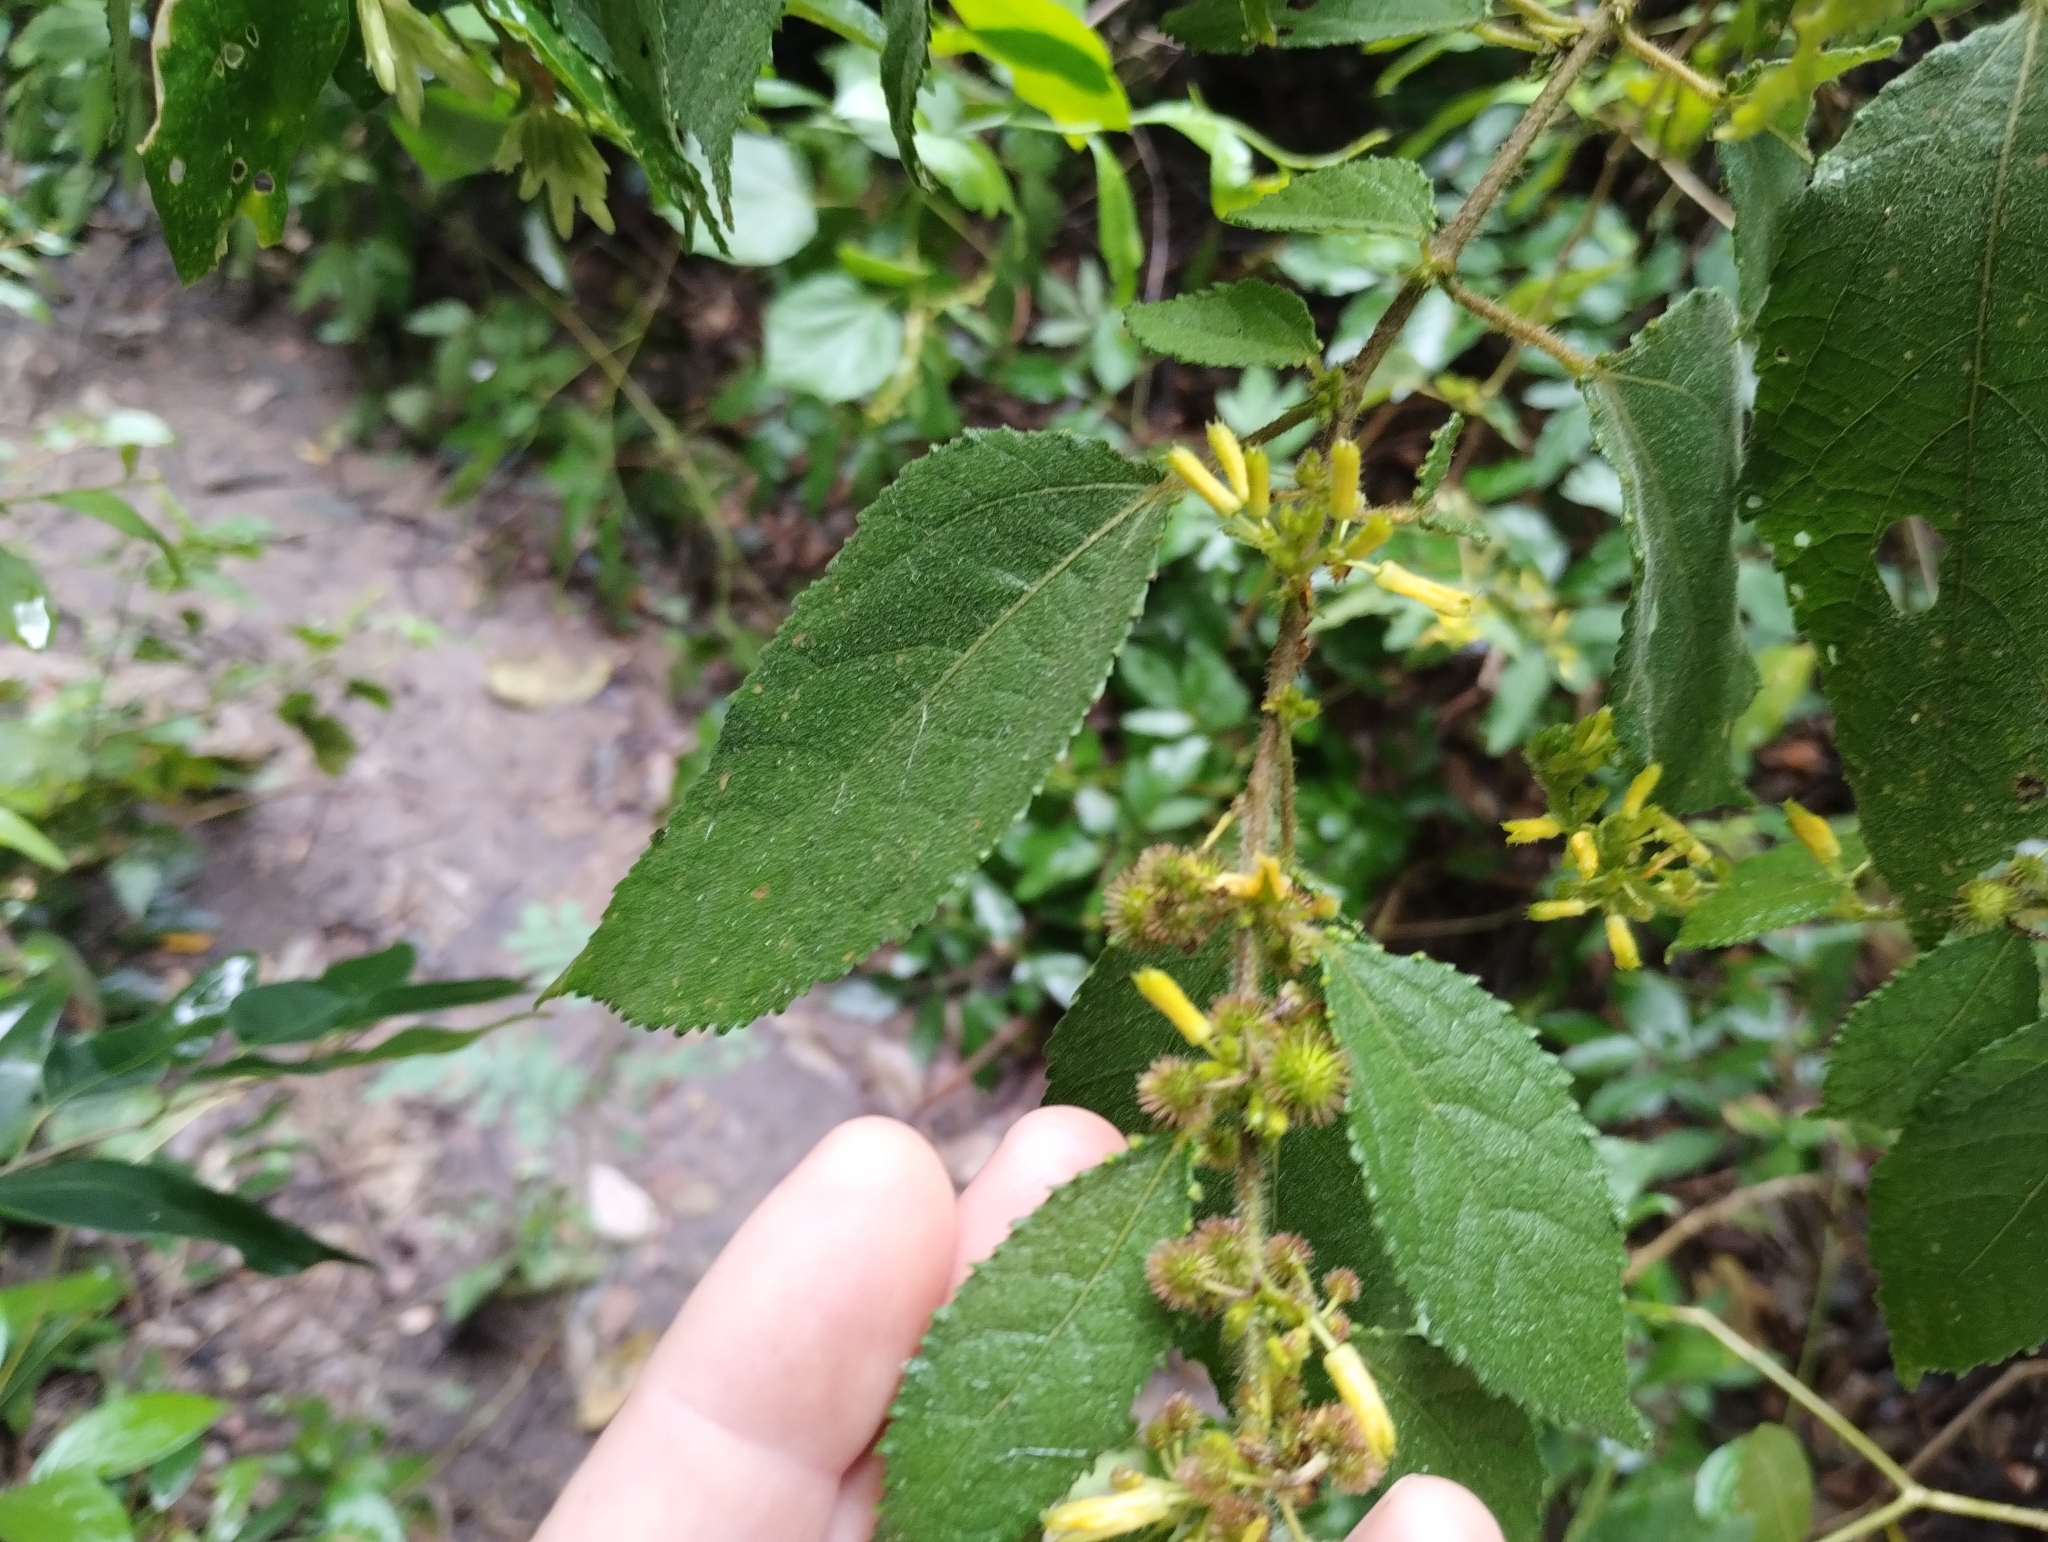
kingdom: Plantae
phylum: Tracheophyta
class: Magnoliopsida
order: Malvales
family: Malvaceae
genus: Triumfetta
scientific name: Triumfetta semitriloba
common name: Sacramento burbark
